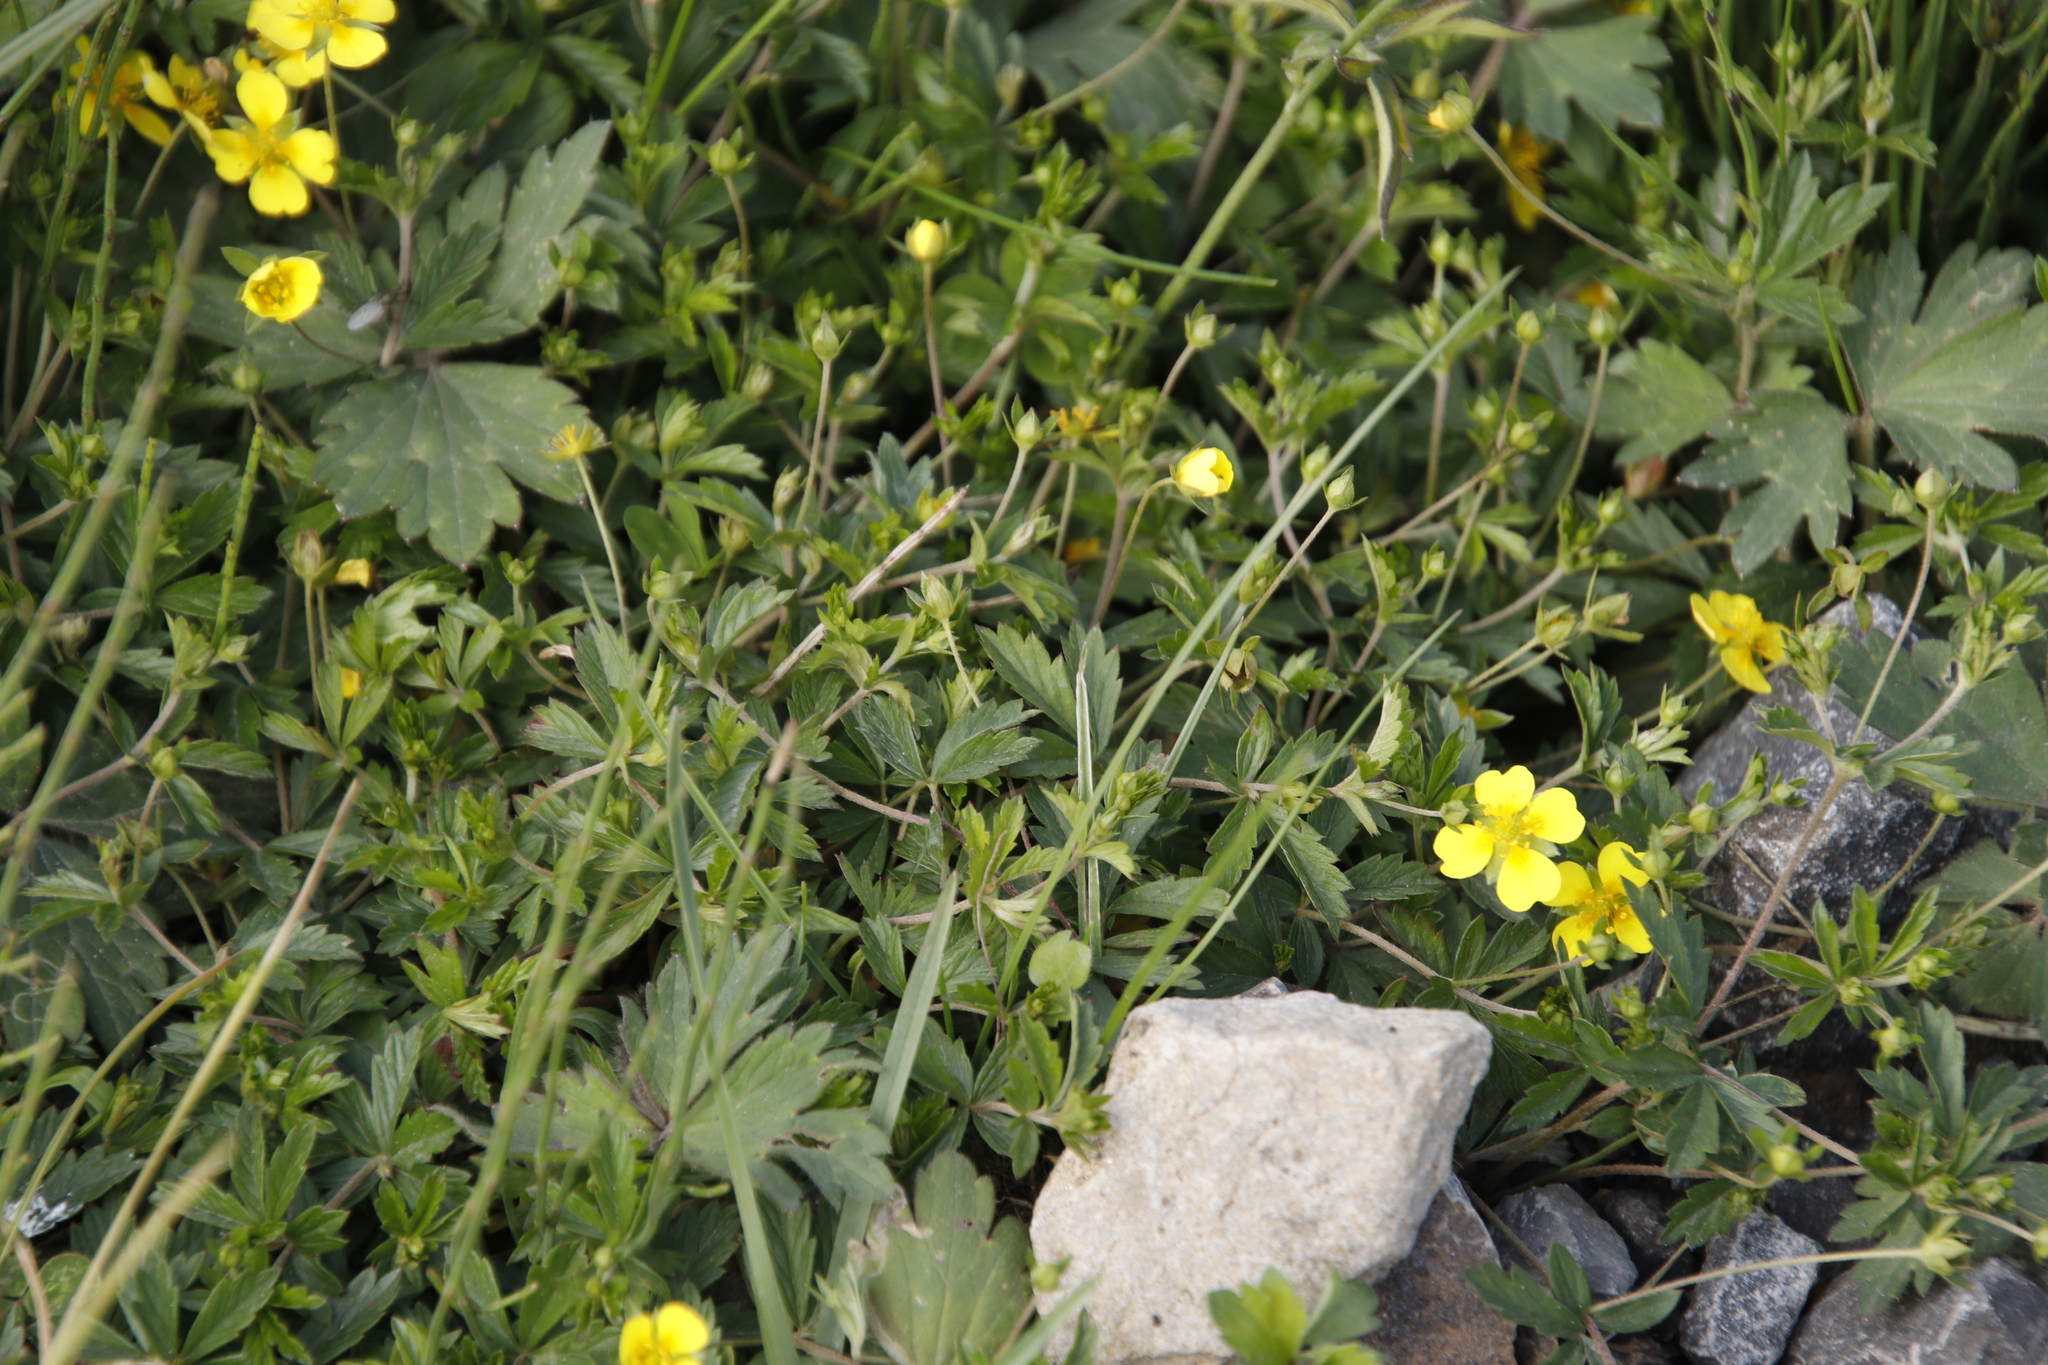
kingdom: Plantae
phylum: Tracheophyta
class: Magnoliopsida
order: Rosales
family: Rosaceae
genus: Potentilla
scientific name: Potentilla erecta
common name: Tormentil
